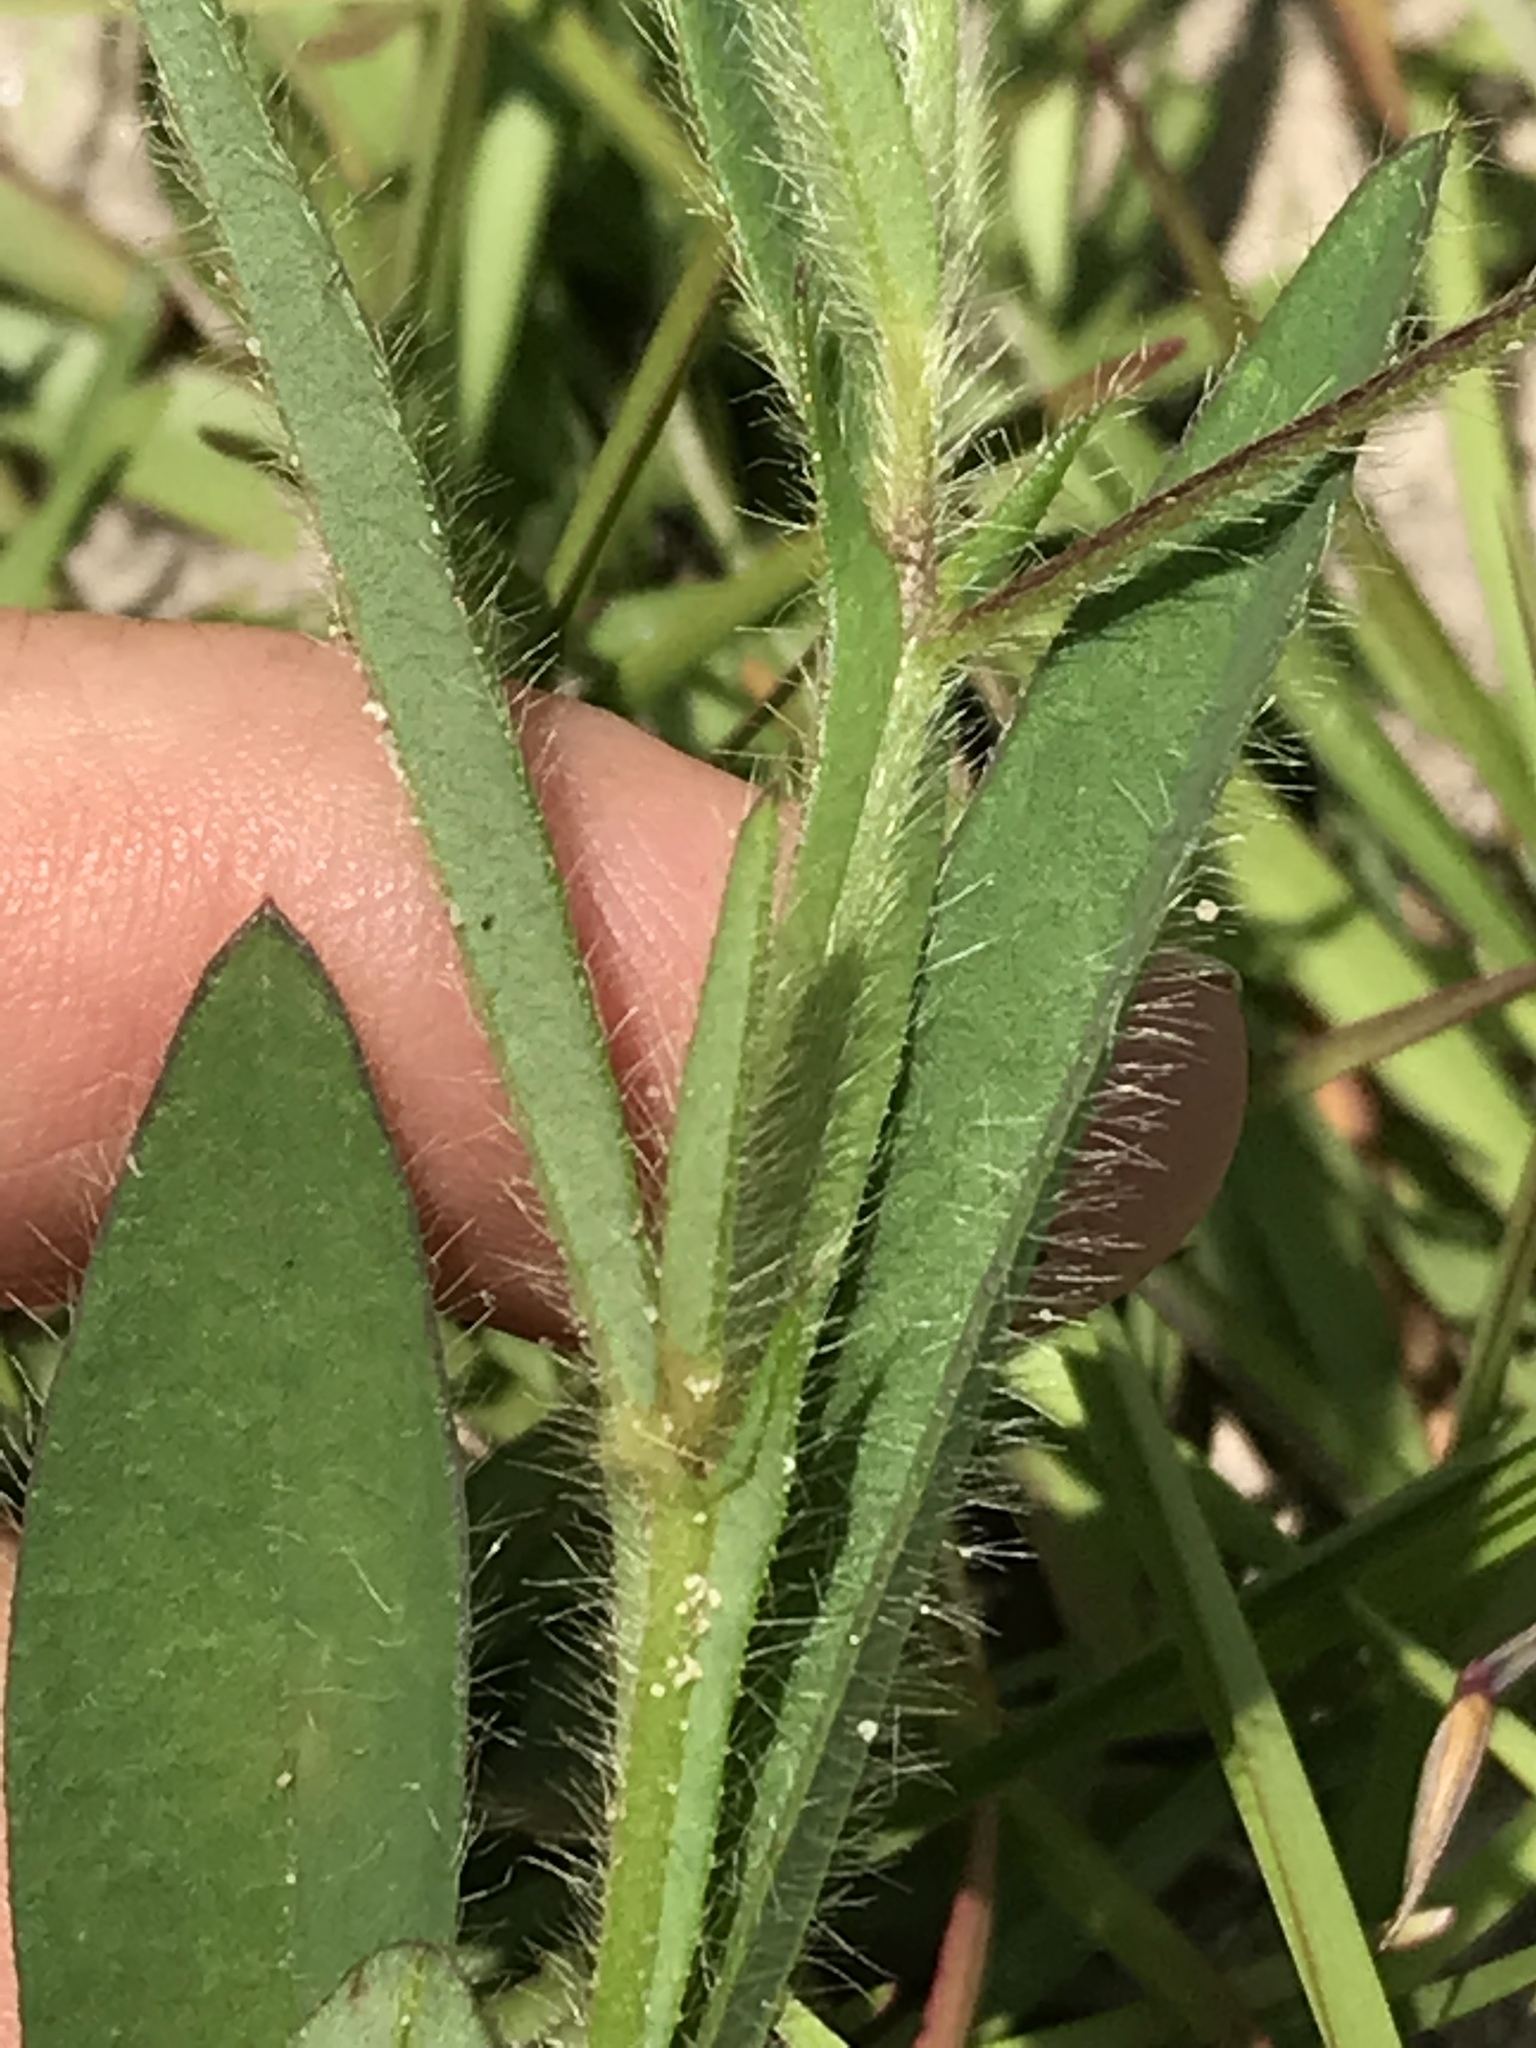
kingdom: Plantae
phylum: Tracheophyta
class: Magnoliopsida
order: Fabales
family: Fabaceae
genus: Crotalaria
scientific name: Crotalaria sagittalis
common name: Arrowhead rattlebox
